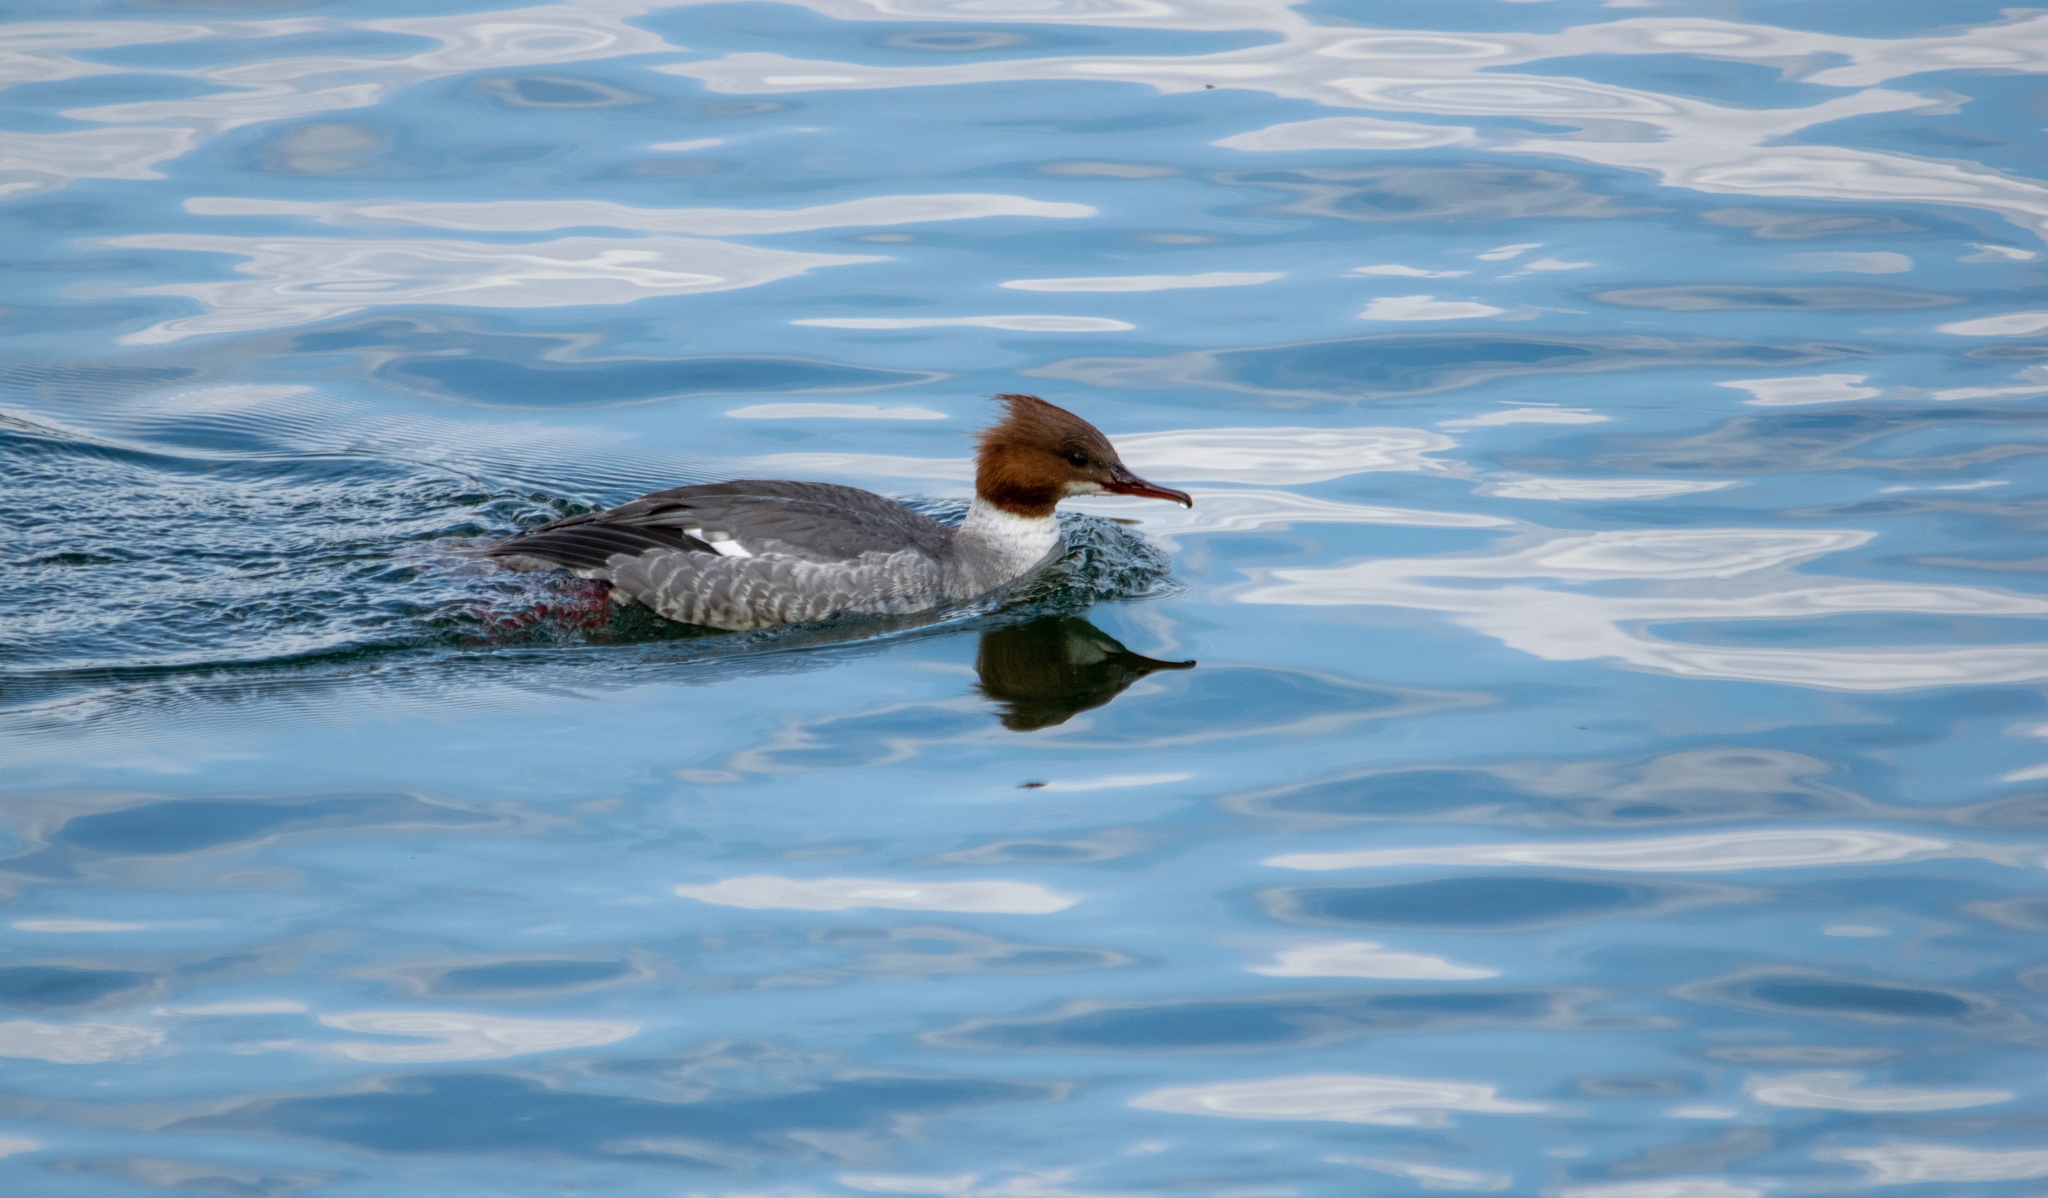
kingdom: Animalia
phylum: Chordata
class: Aves
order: Anseriformes
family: Anatidae
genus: Mergus
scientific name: Mergus merganser
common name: Common merganser
